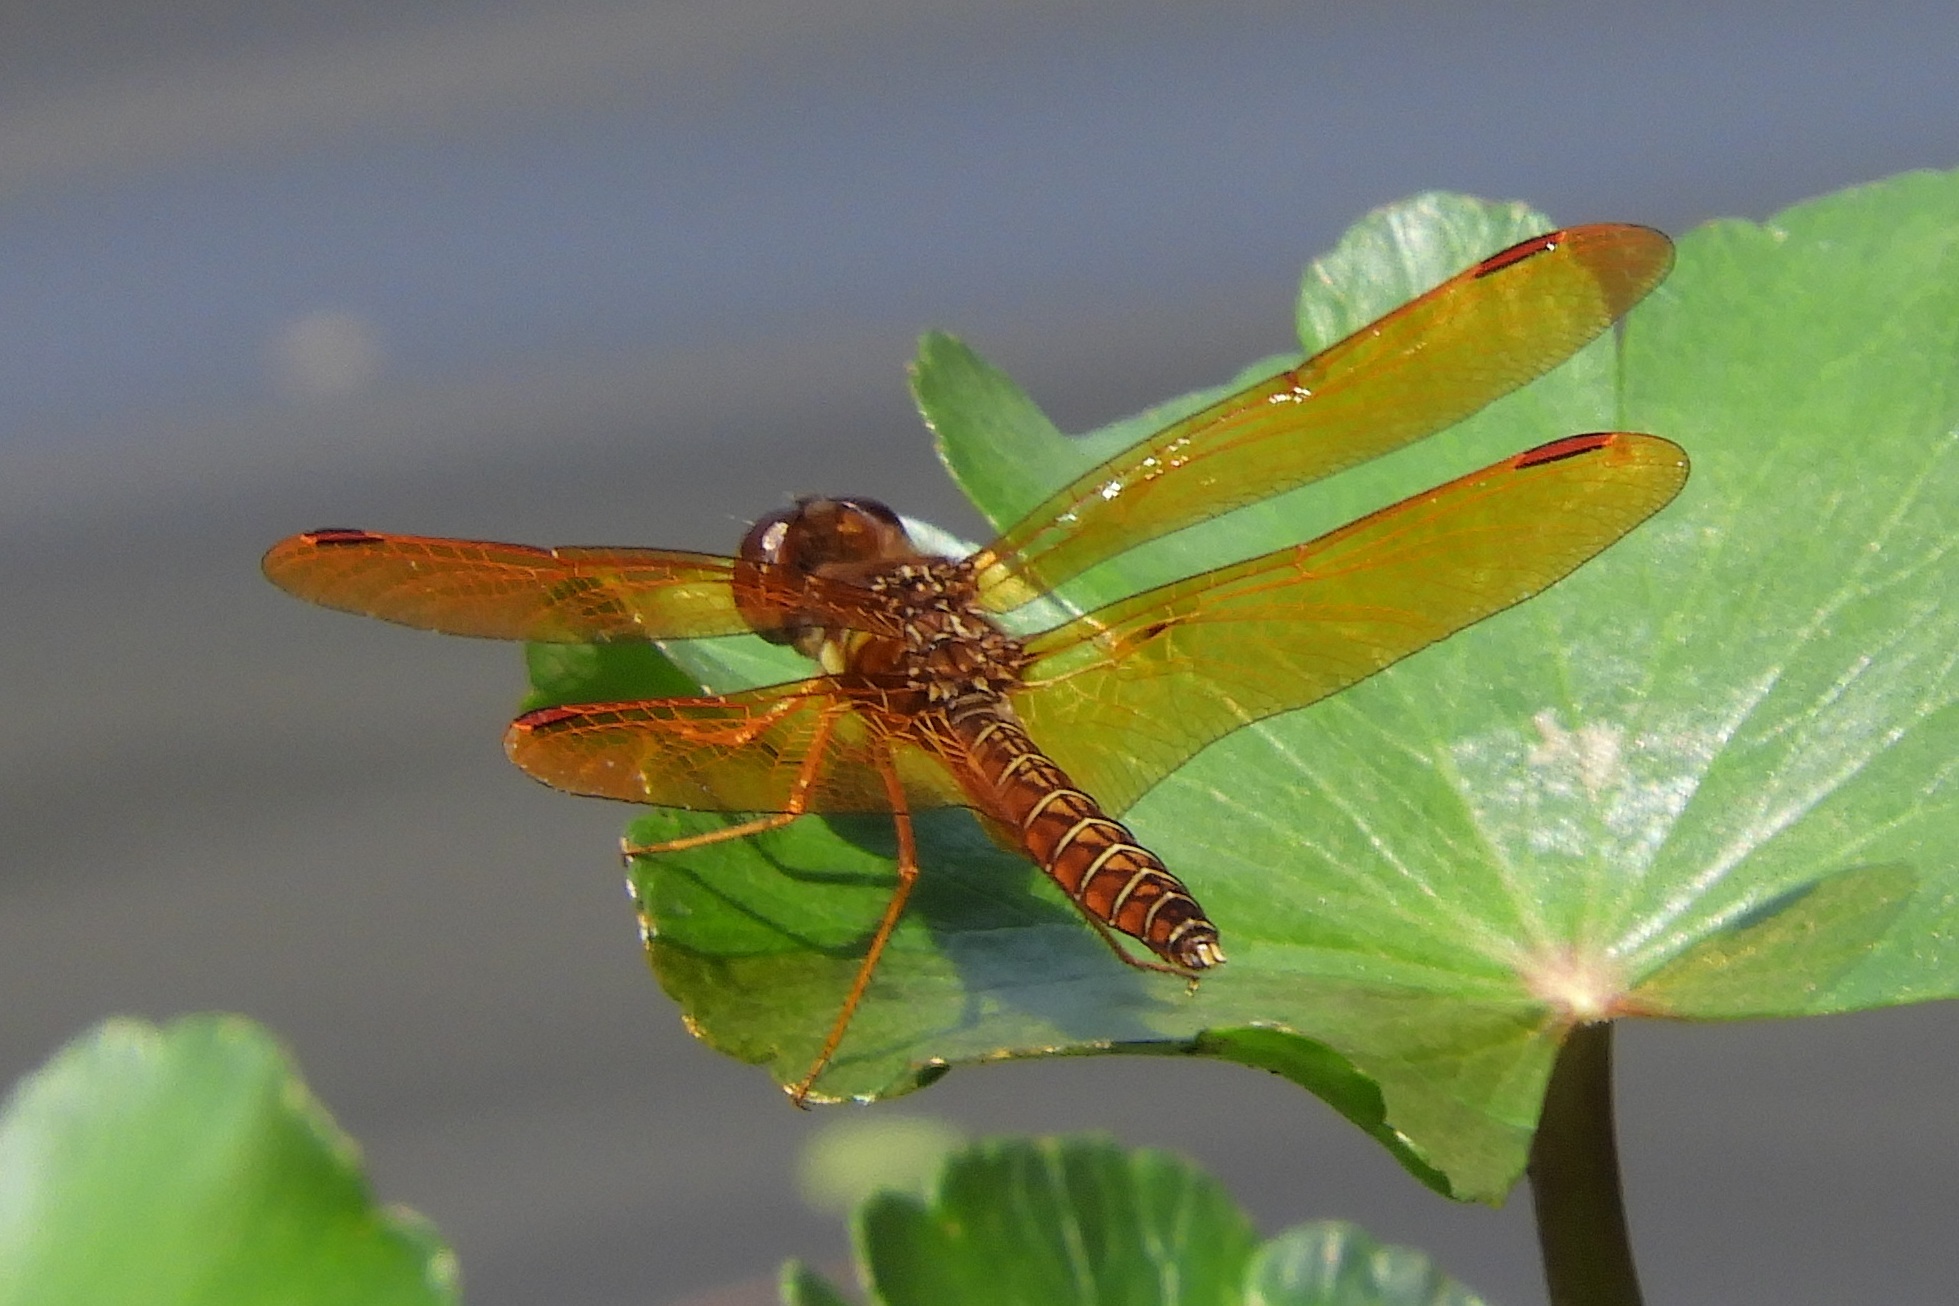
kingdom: Animalia
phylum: Arthropoda
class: Insecta
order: Odonata
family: Libellulidae
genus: Perithemis
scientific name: Perithemis tenera
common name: Eastern amberwing
